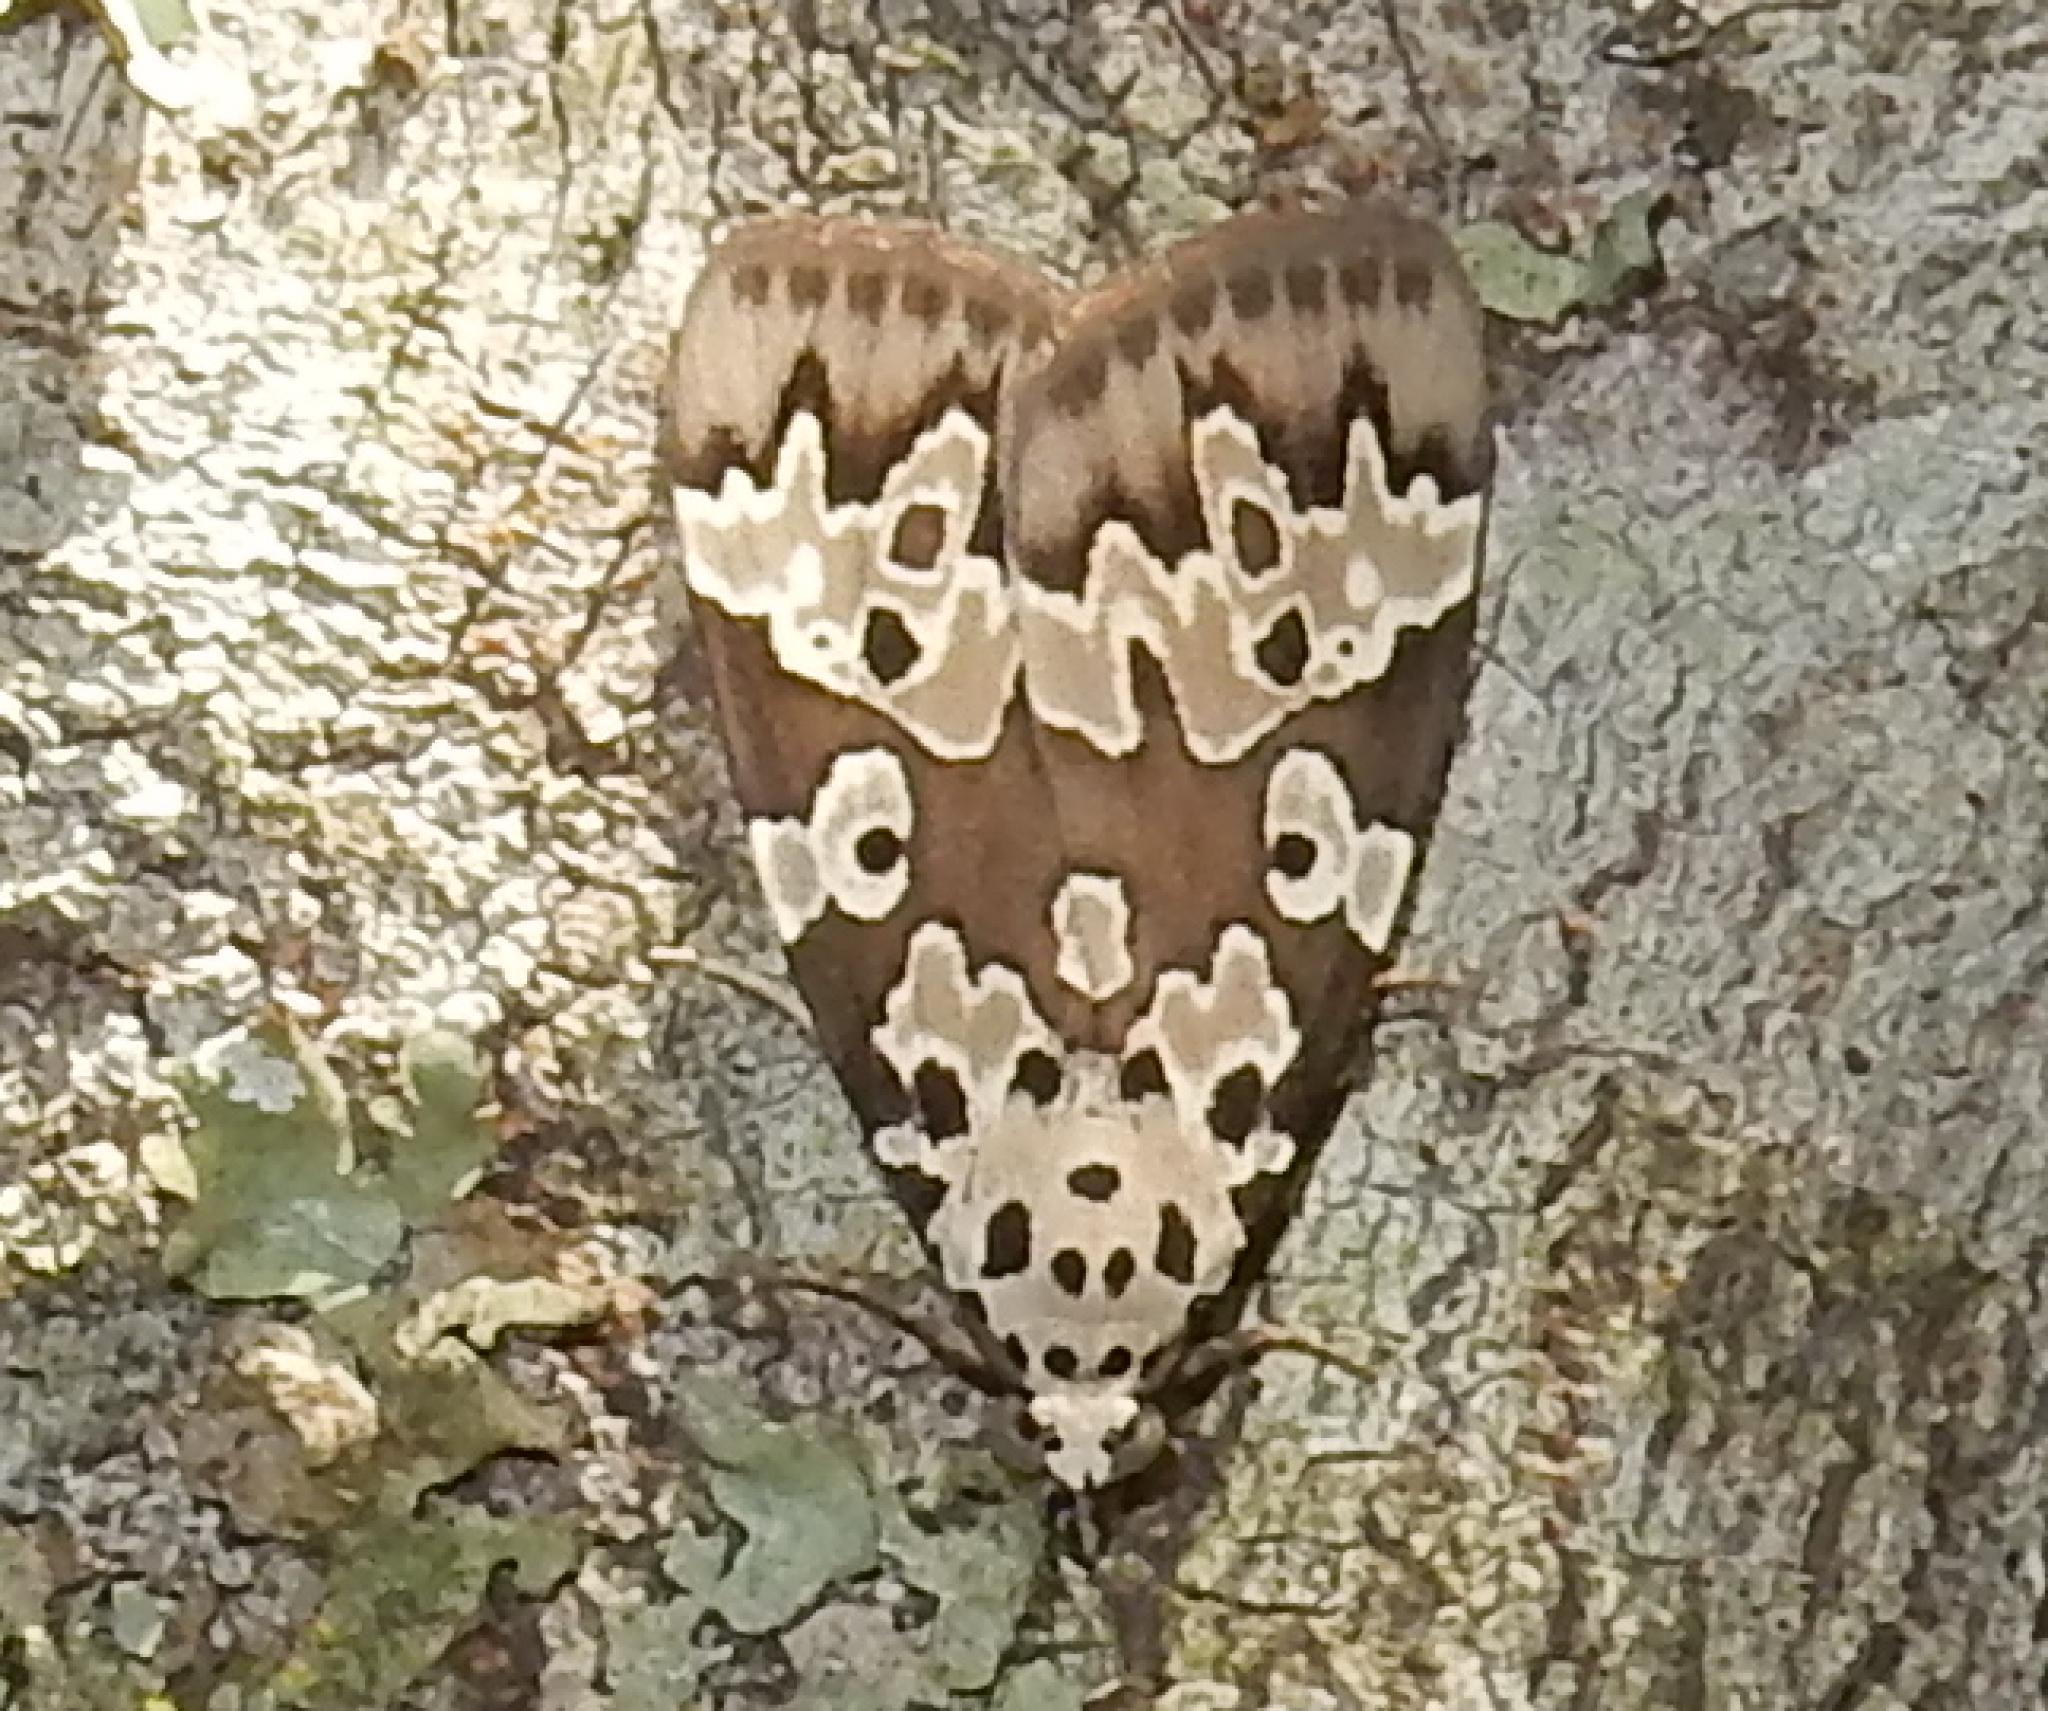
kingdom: Animalia
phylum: Arthropoda
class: Insecta
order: Lepidoptera
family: Erebidae
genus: Digama
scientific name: Digama Sommeria culta
